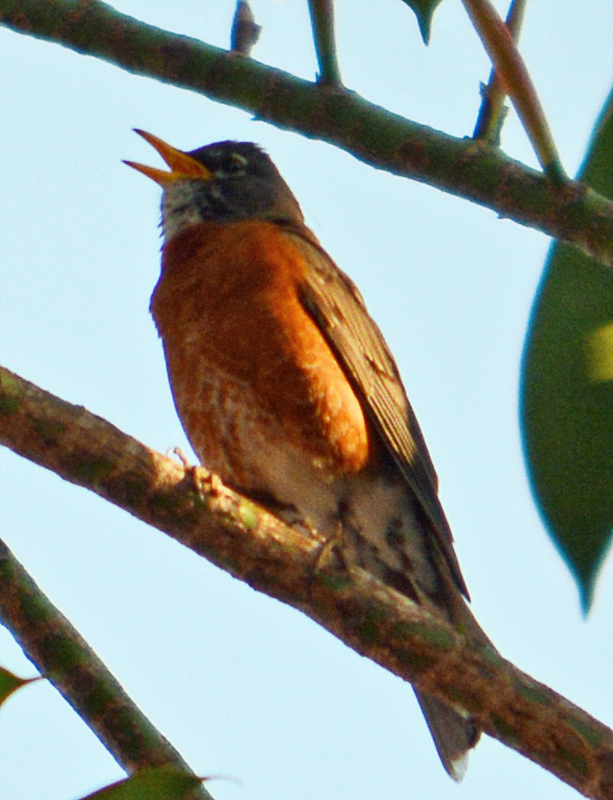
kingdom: Animalia
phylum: Chordata
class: Aves
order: Passeriformes
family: Turdidae
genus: Turdus
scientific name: Turdus migratorius
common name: American robin
